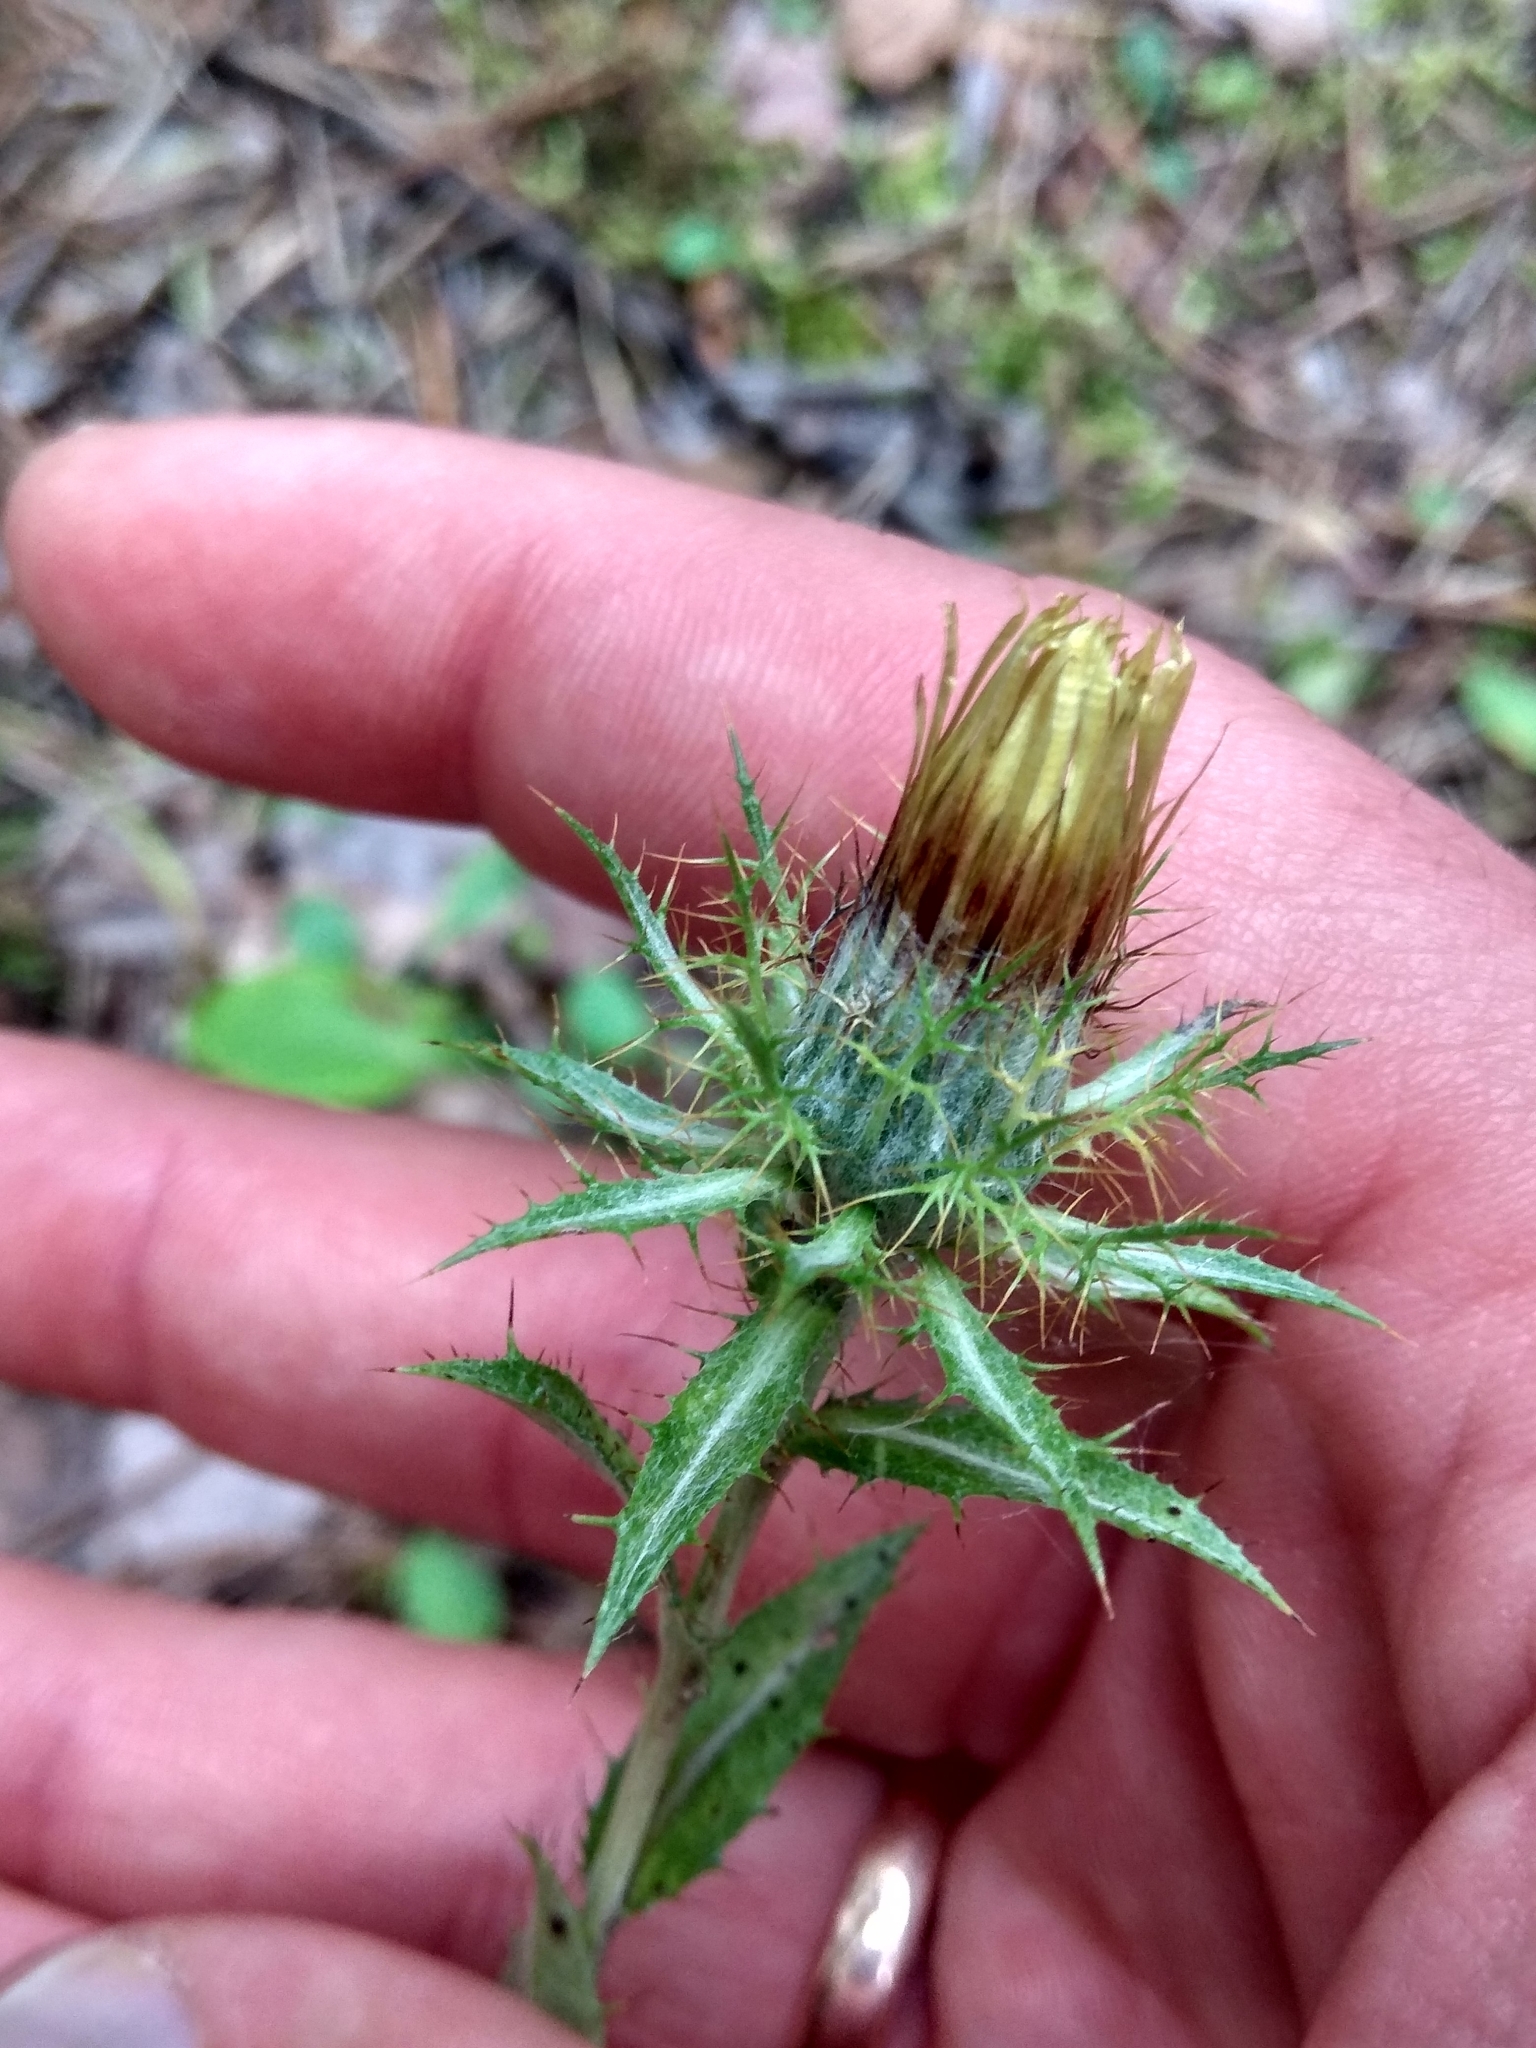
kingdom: Plantae
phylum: Tracheophyta
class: Magnoliopsida
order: Asterales
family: Asteraceae
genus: Carlina
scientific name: Carlina biebersteinii
